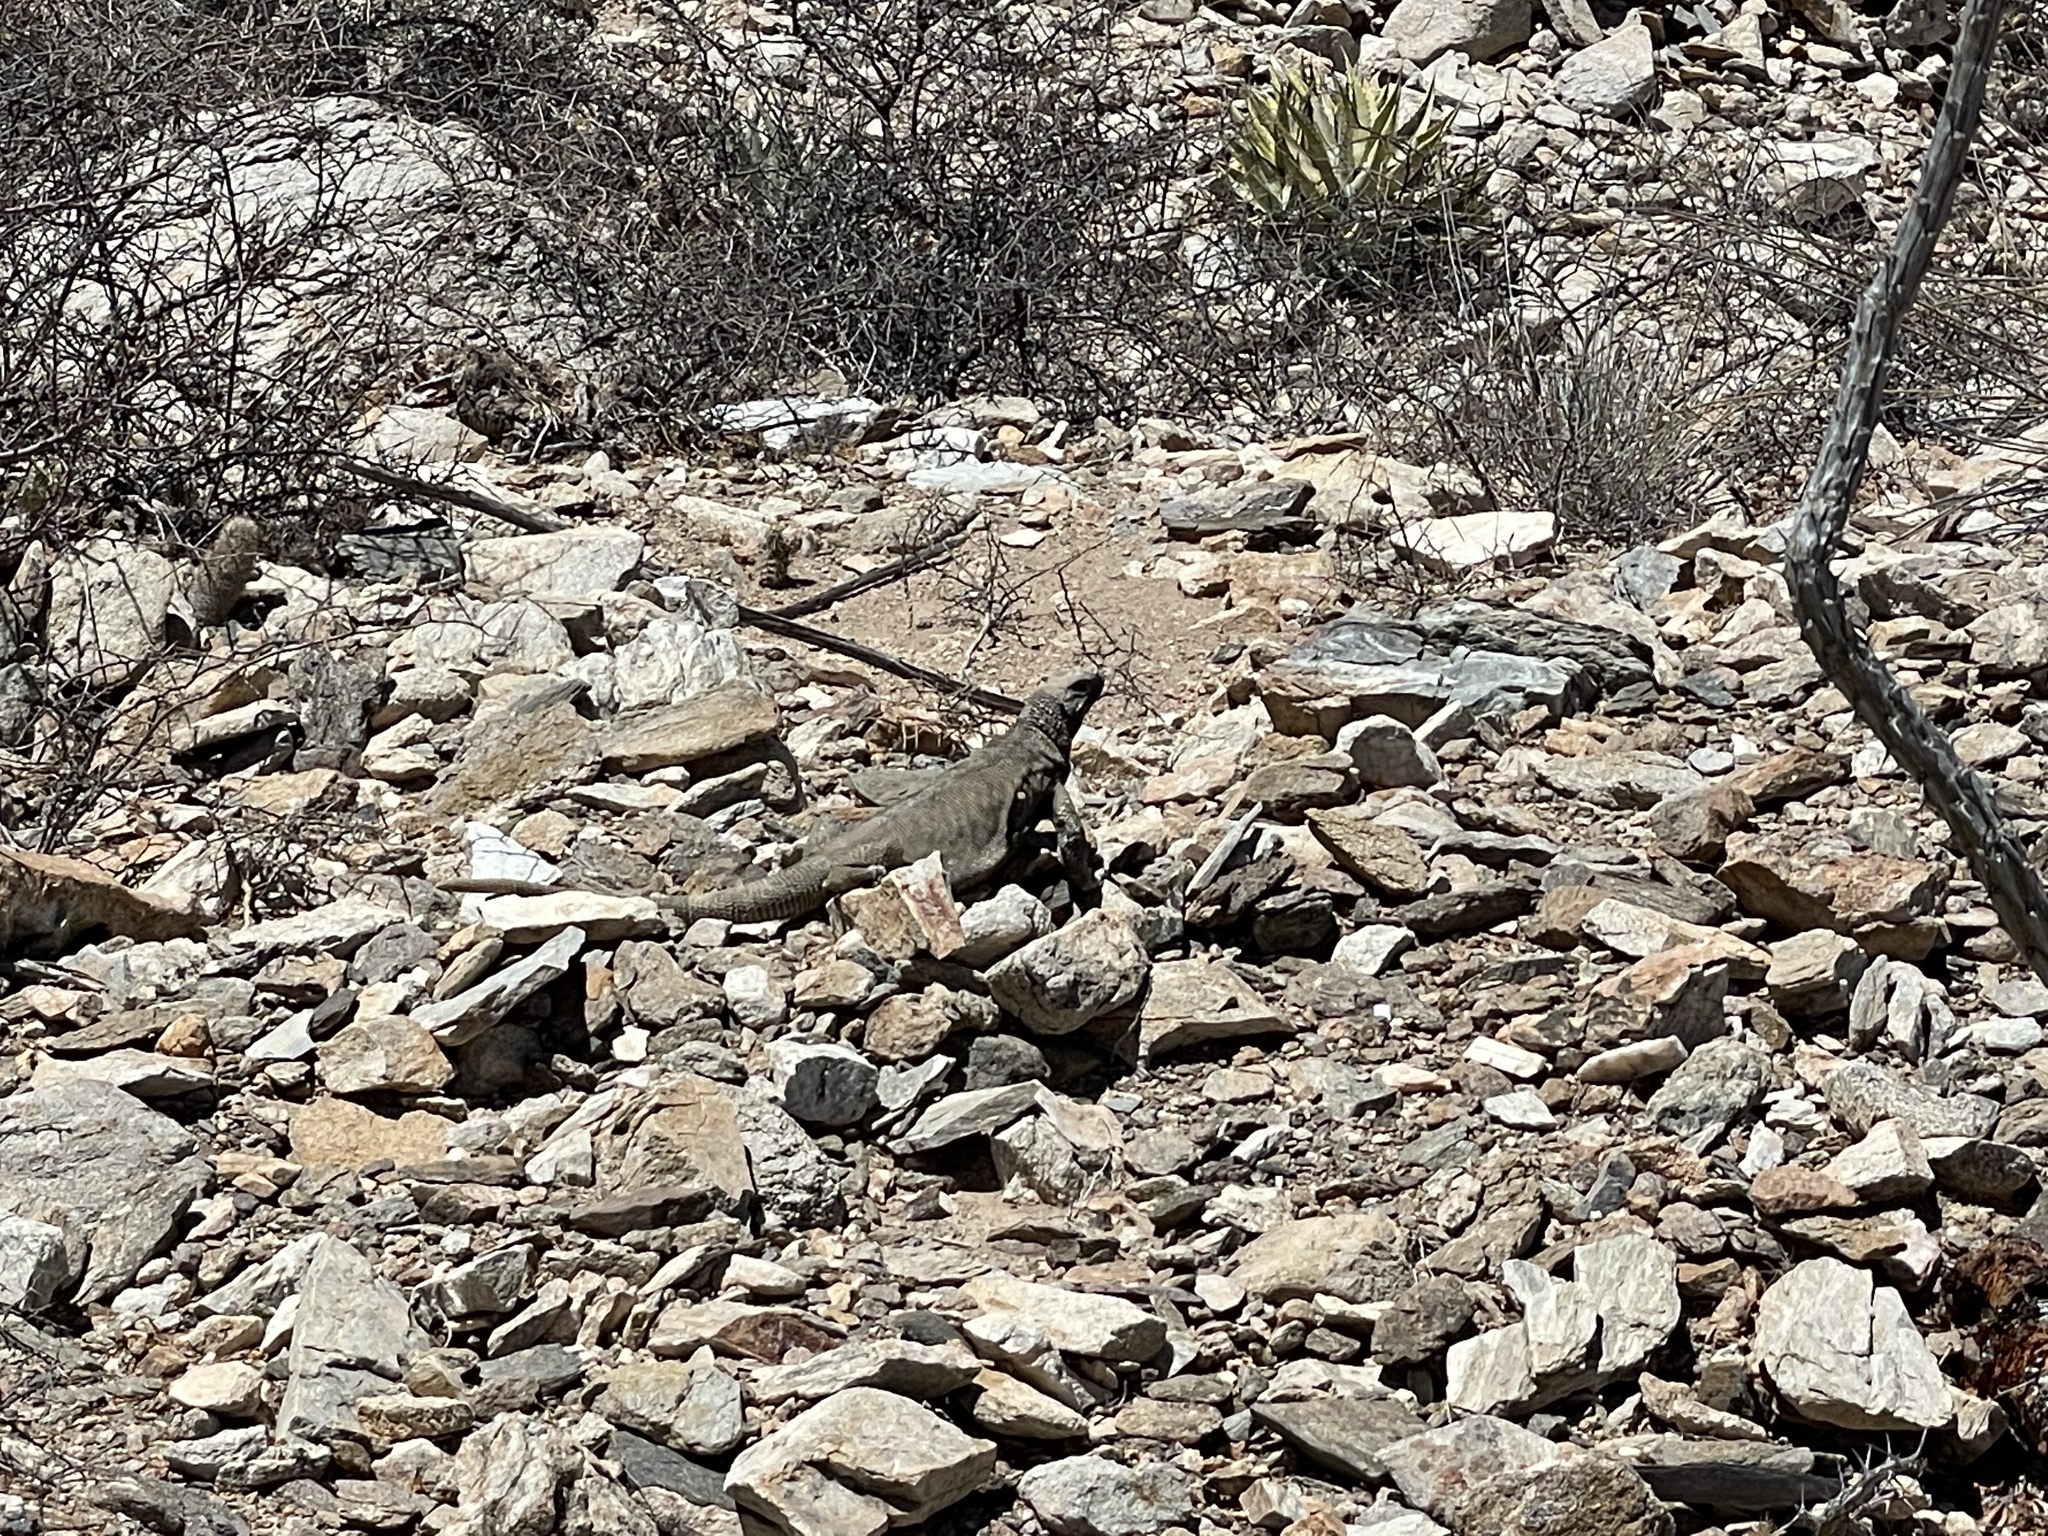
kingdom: Animalia
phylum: Chordata
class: Squamata
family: Iguanidae
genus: Sauromalus
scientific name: Sauromalus hispidus
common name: Spiny chuckwalla
